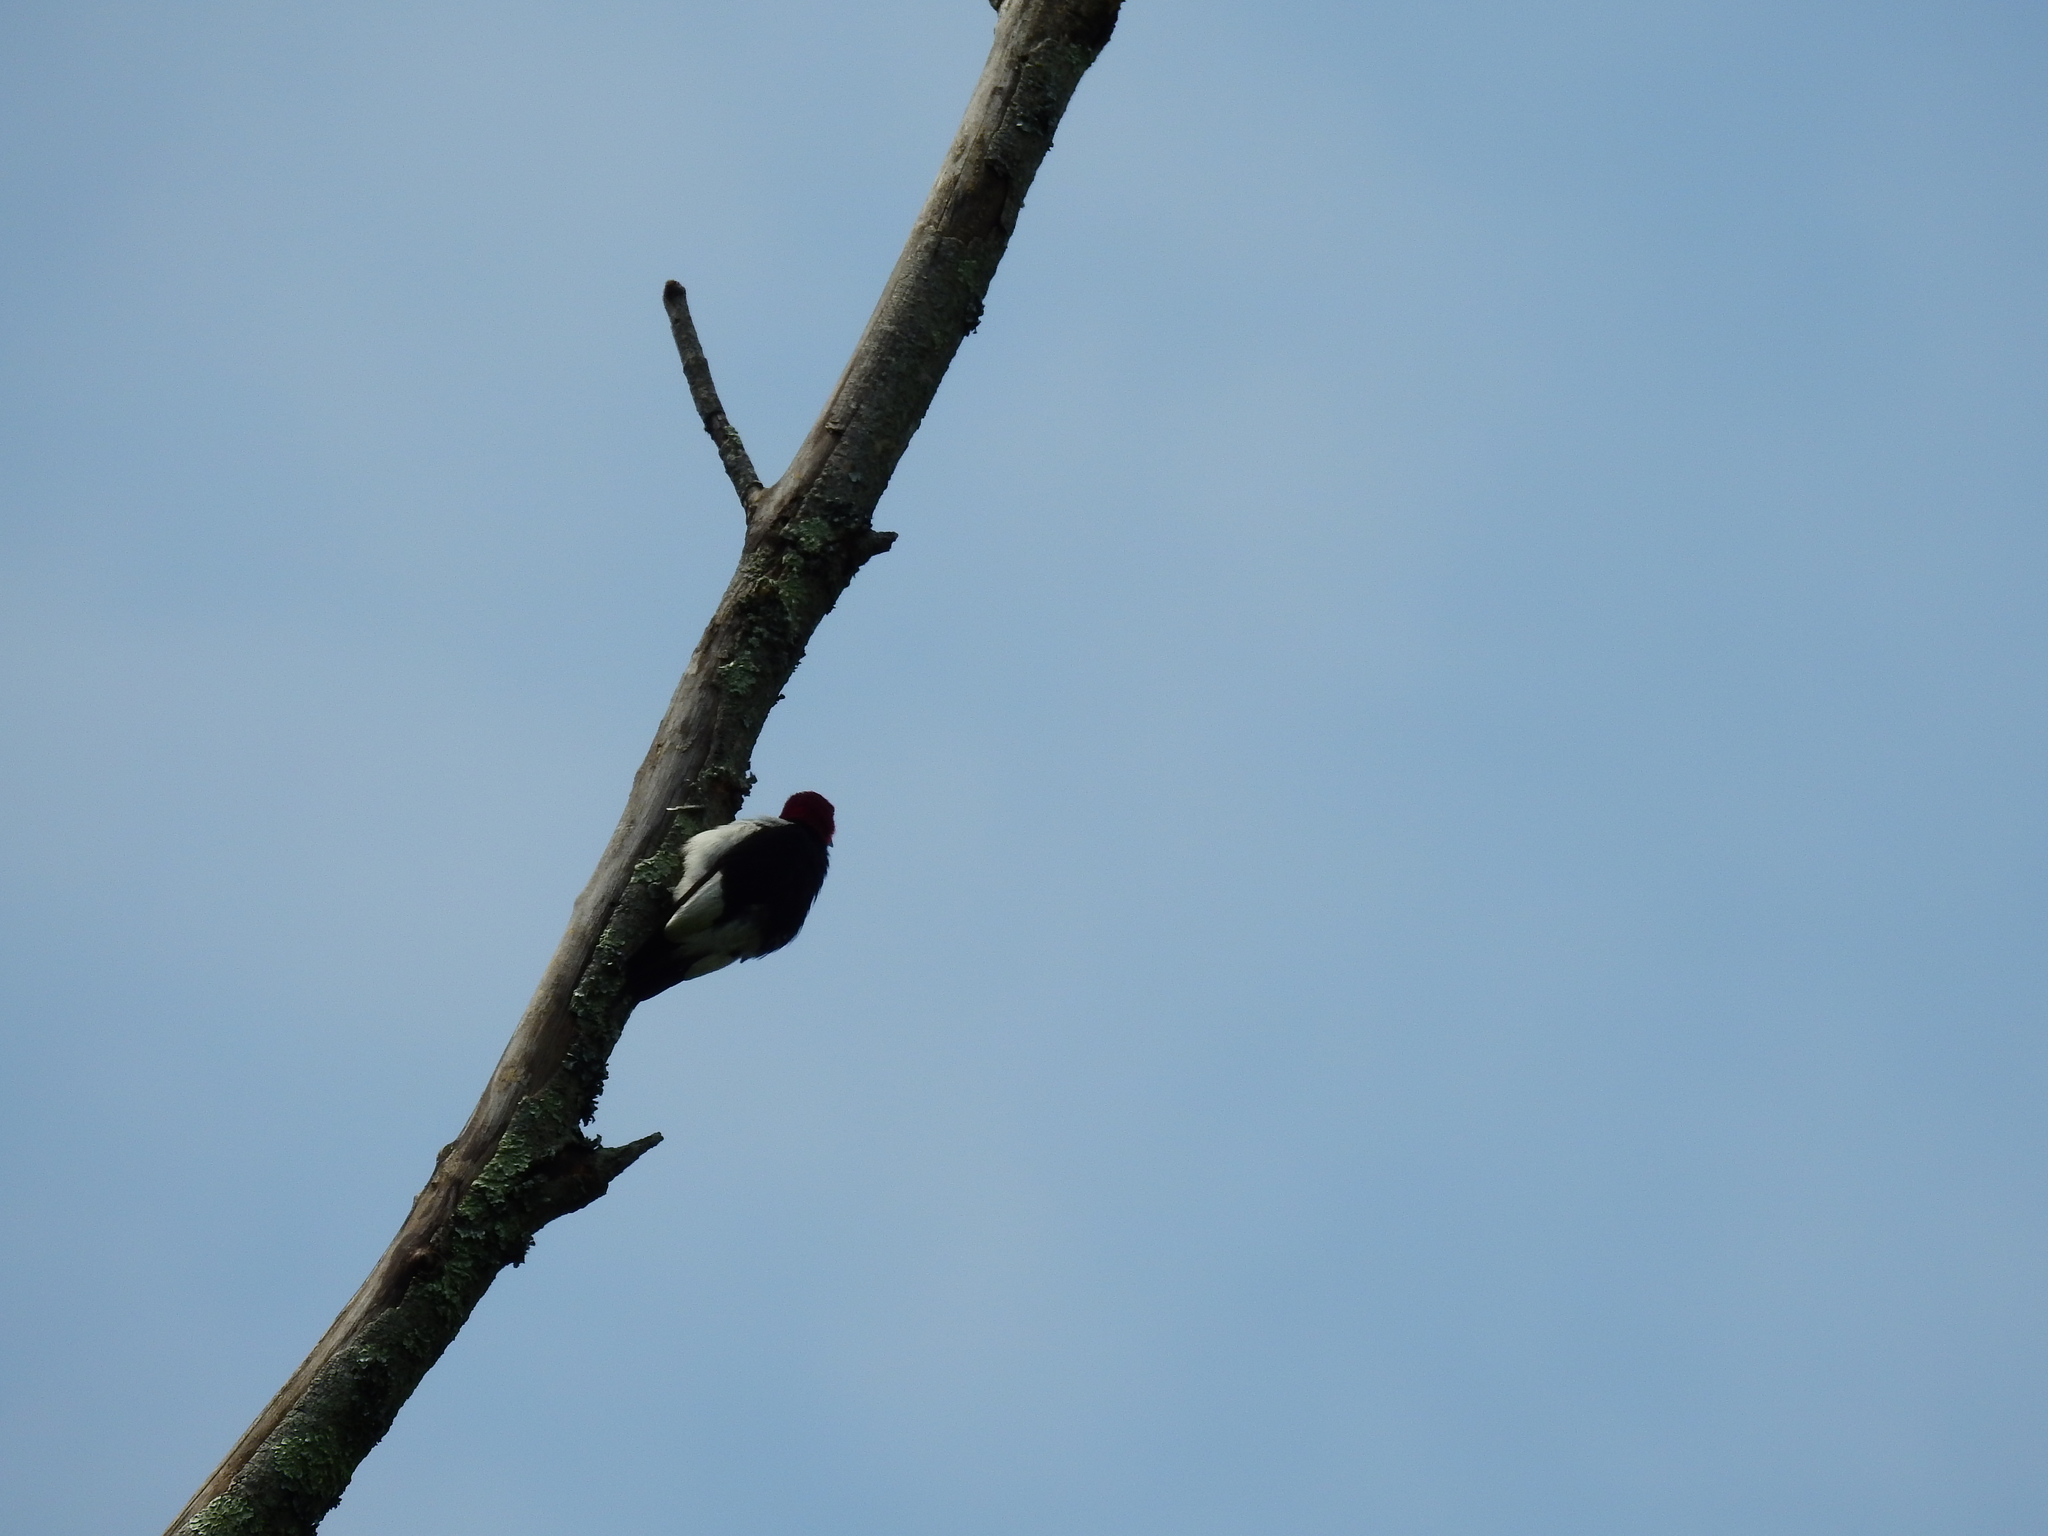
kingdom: Animalia
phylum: Chordata
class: Aves
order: Piciformes
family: Picidae
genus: Melanerpes
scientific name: Melanerpes erythrocephalus
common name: Red-headed woodpecker
